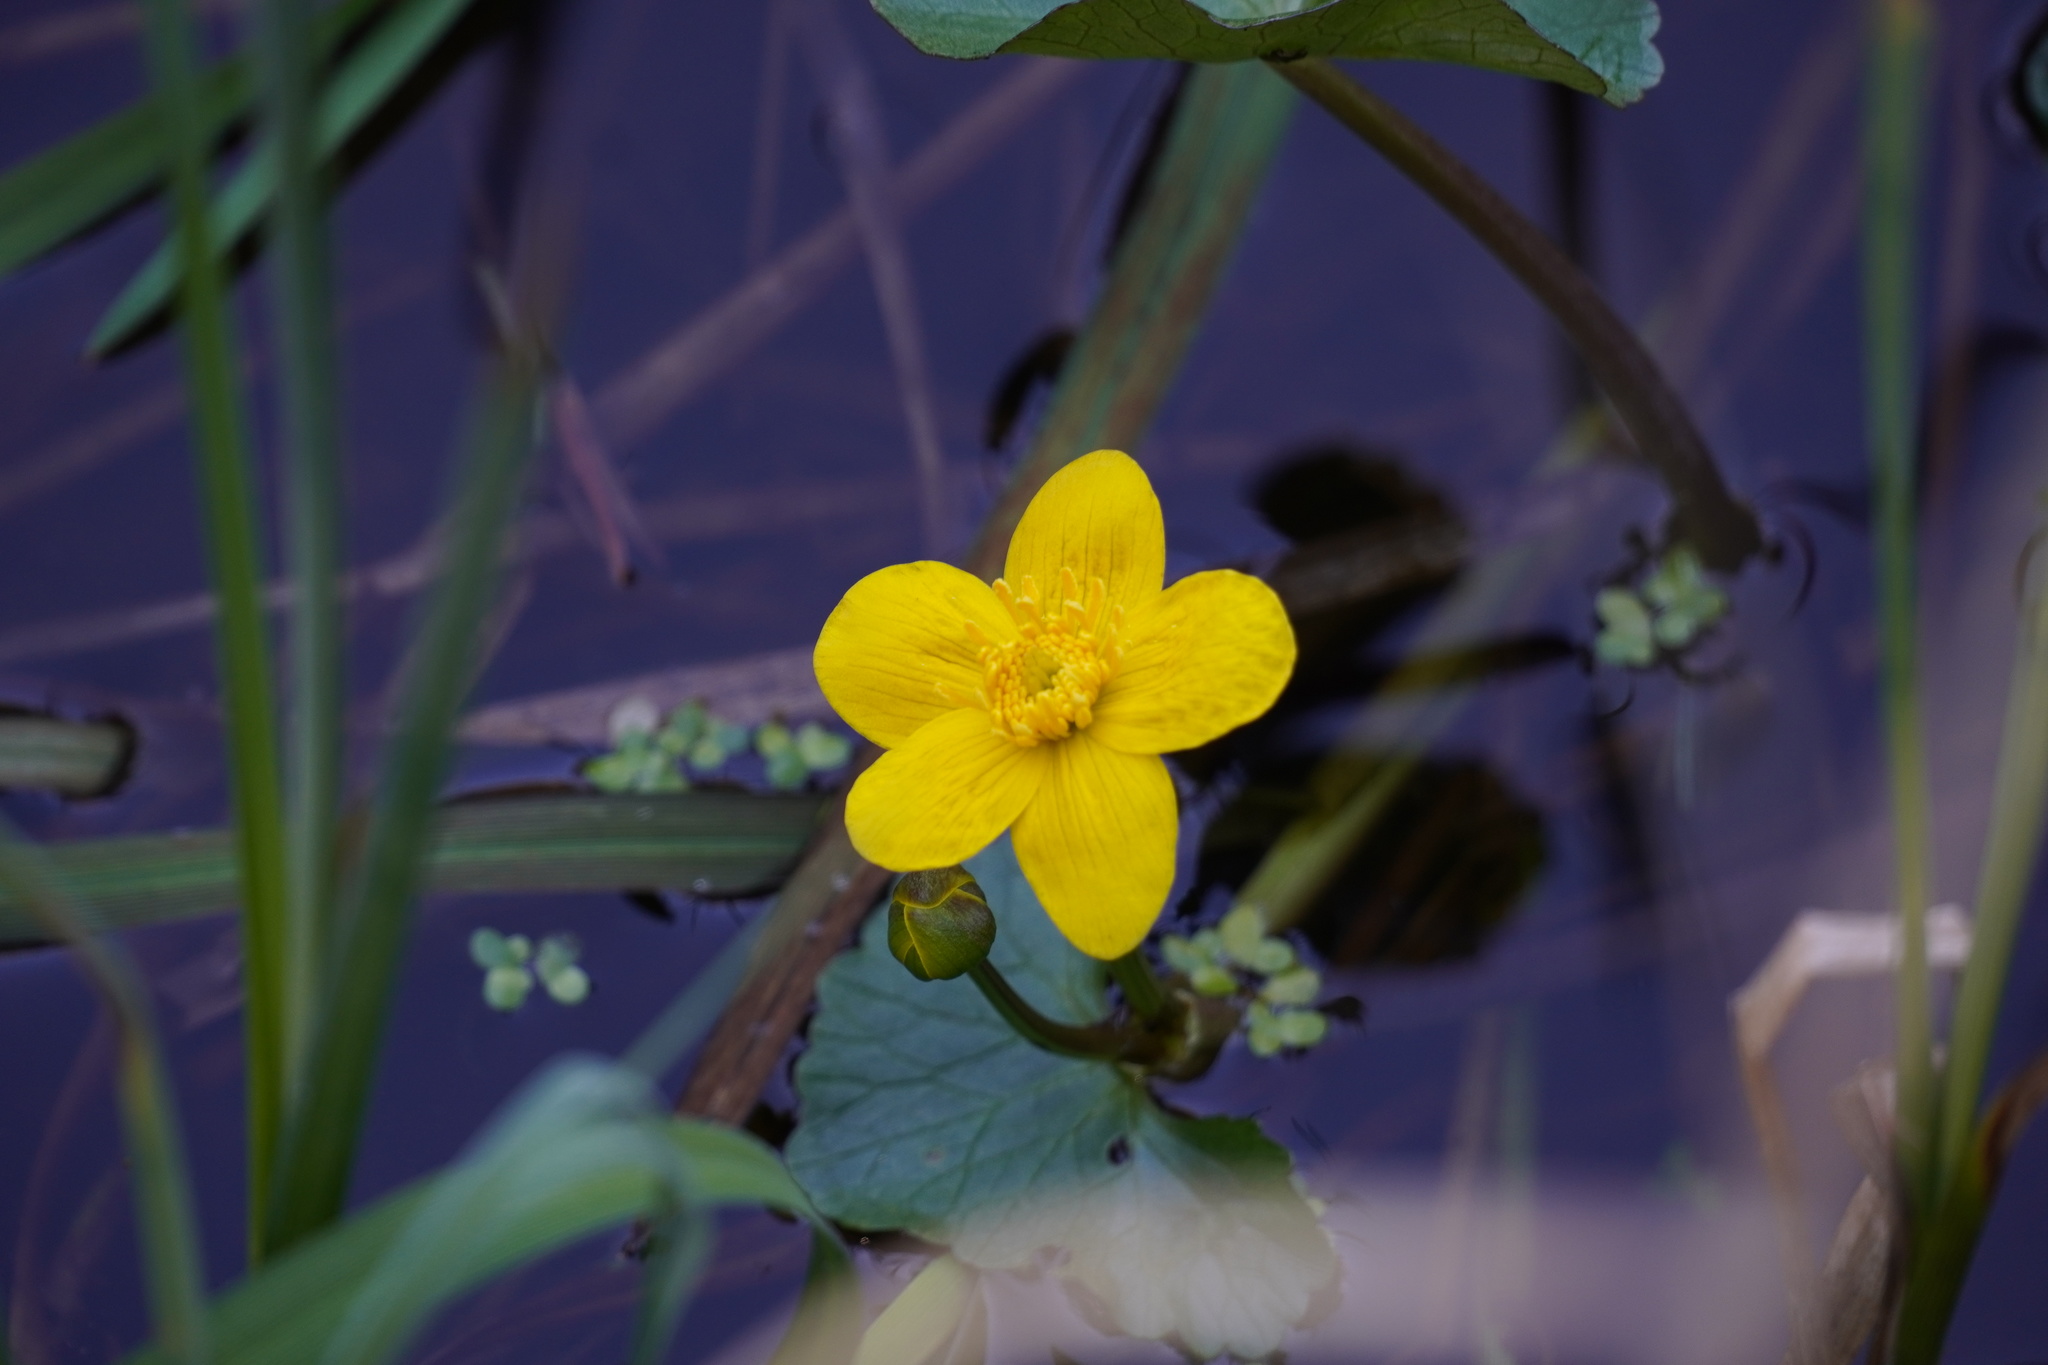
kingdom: Plantae
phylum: Tracheophyta
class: Magnoliopsida
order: Ranunculales
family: Ranunculaceae
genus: Caltha
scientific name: Caltha palustris
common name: Marsh marigold
